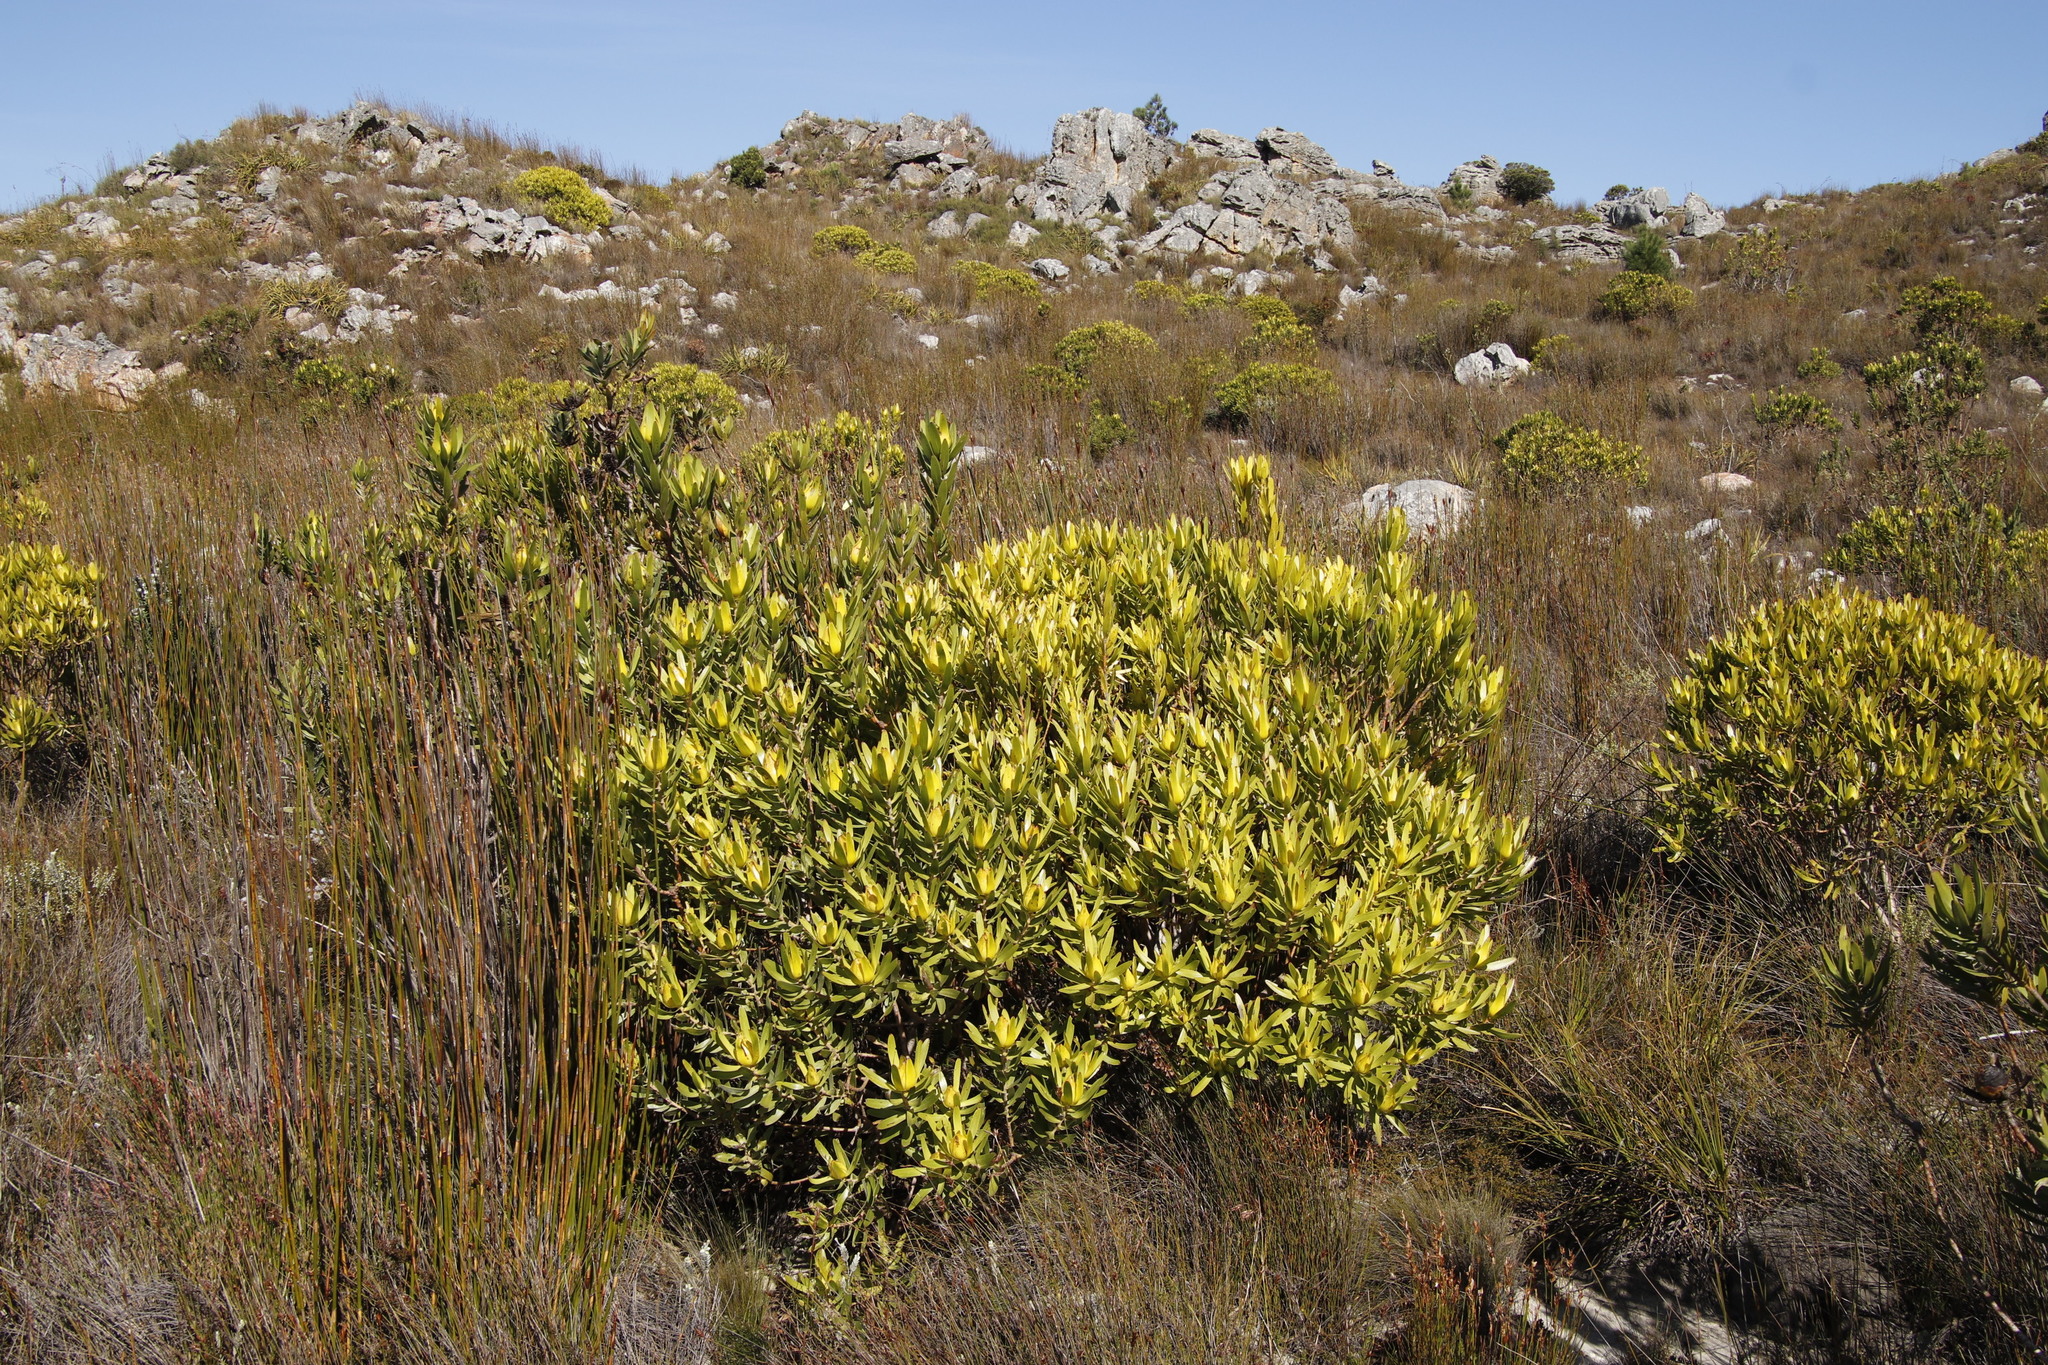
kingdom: Plantae
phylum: Tracheophyta
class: Magnoliopsida
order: Proteales
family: Proteaceae
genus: Leucadendron
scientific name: Leucadendron laureolum
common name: Golden sunshinebush
